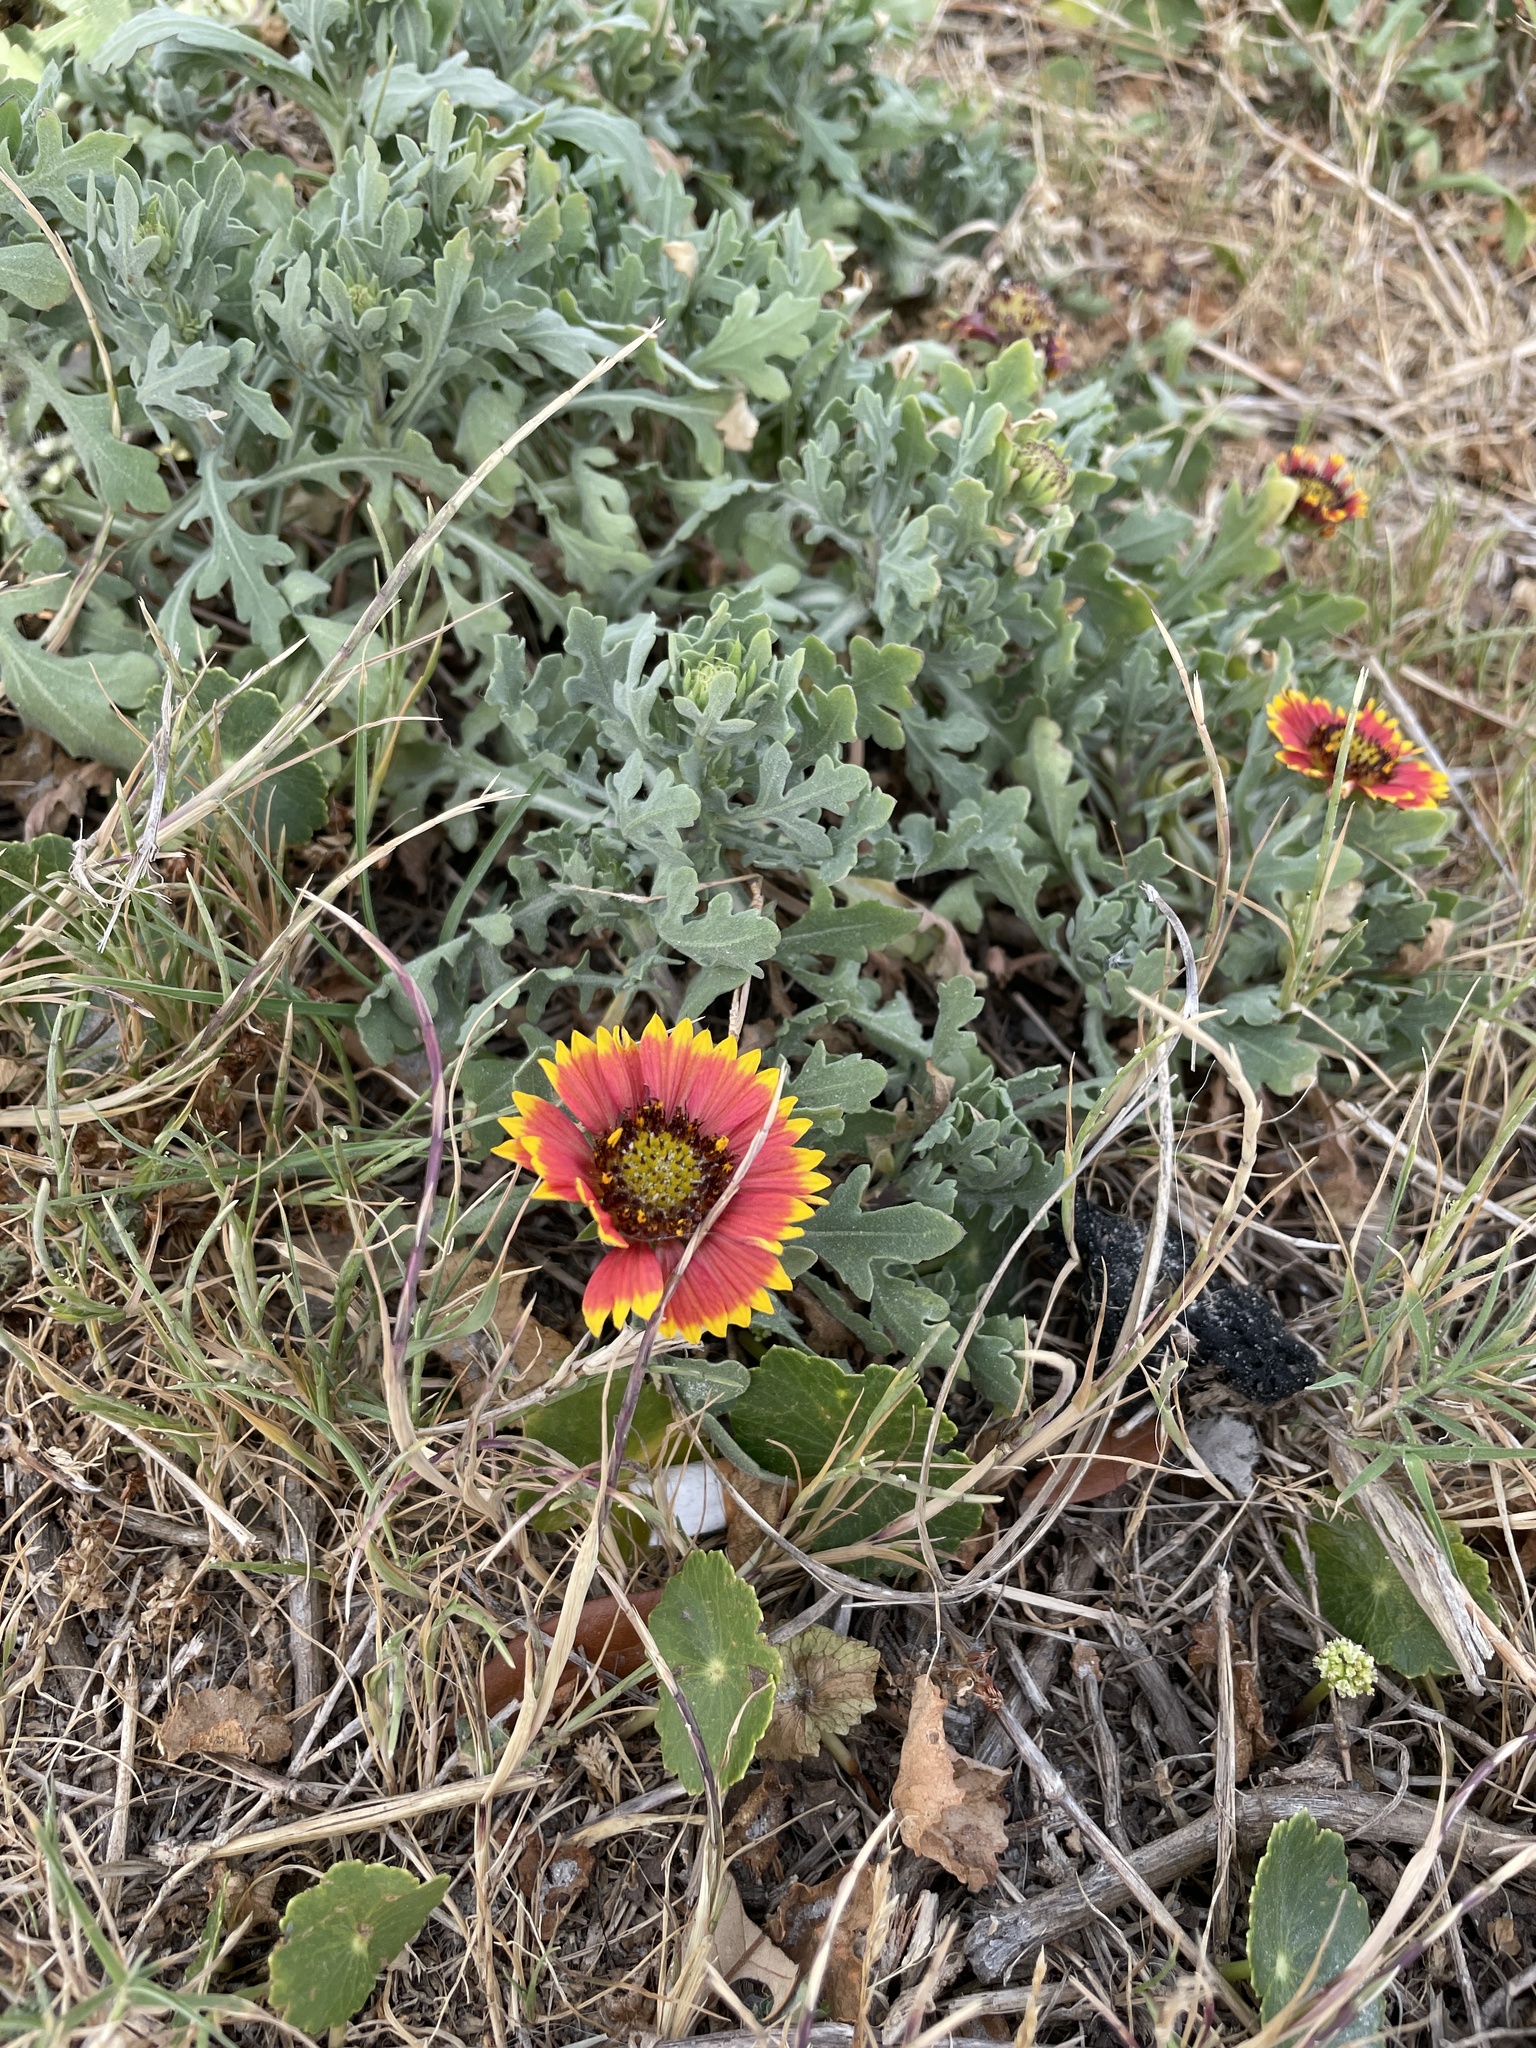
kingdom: Plantae
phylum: Tracheophyta
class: Magnoliopsida
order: Asterales
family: Asteraceae
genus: Gaillardia
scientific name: Gaillardia pulchella
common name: Firewheel
